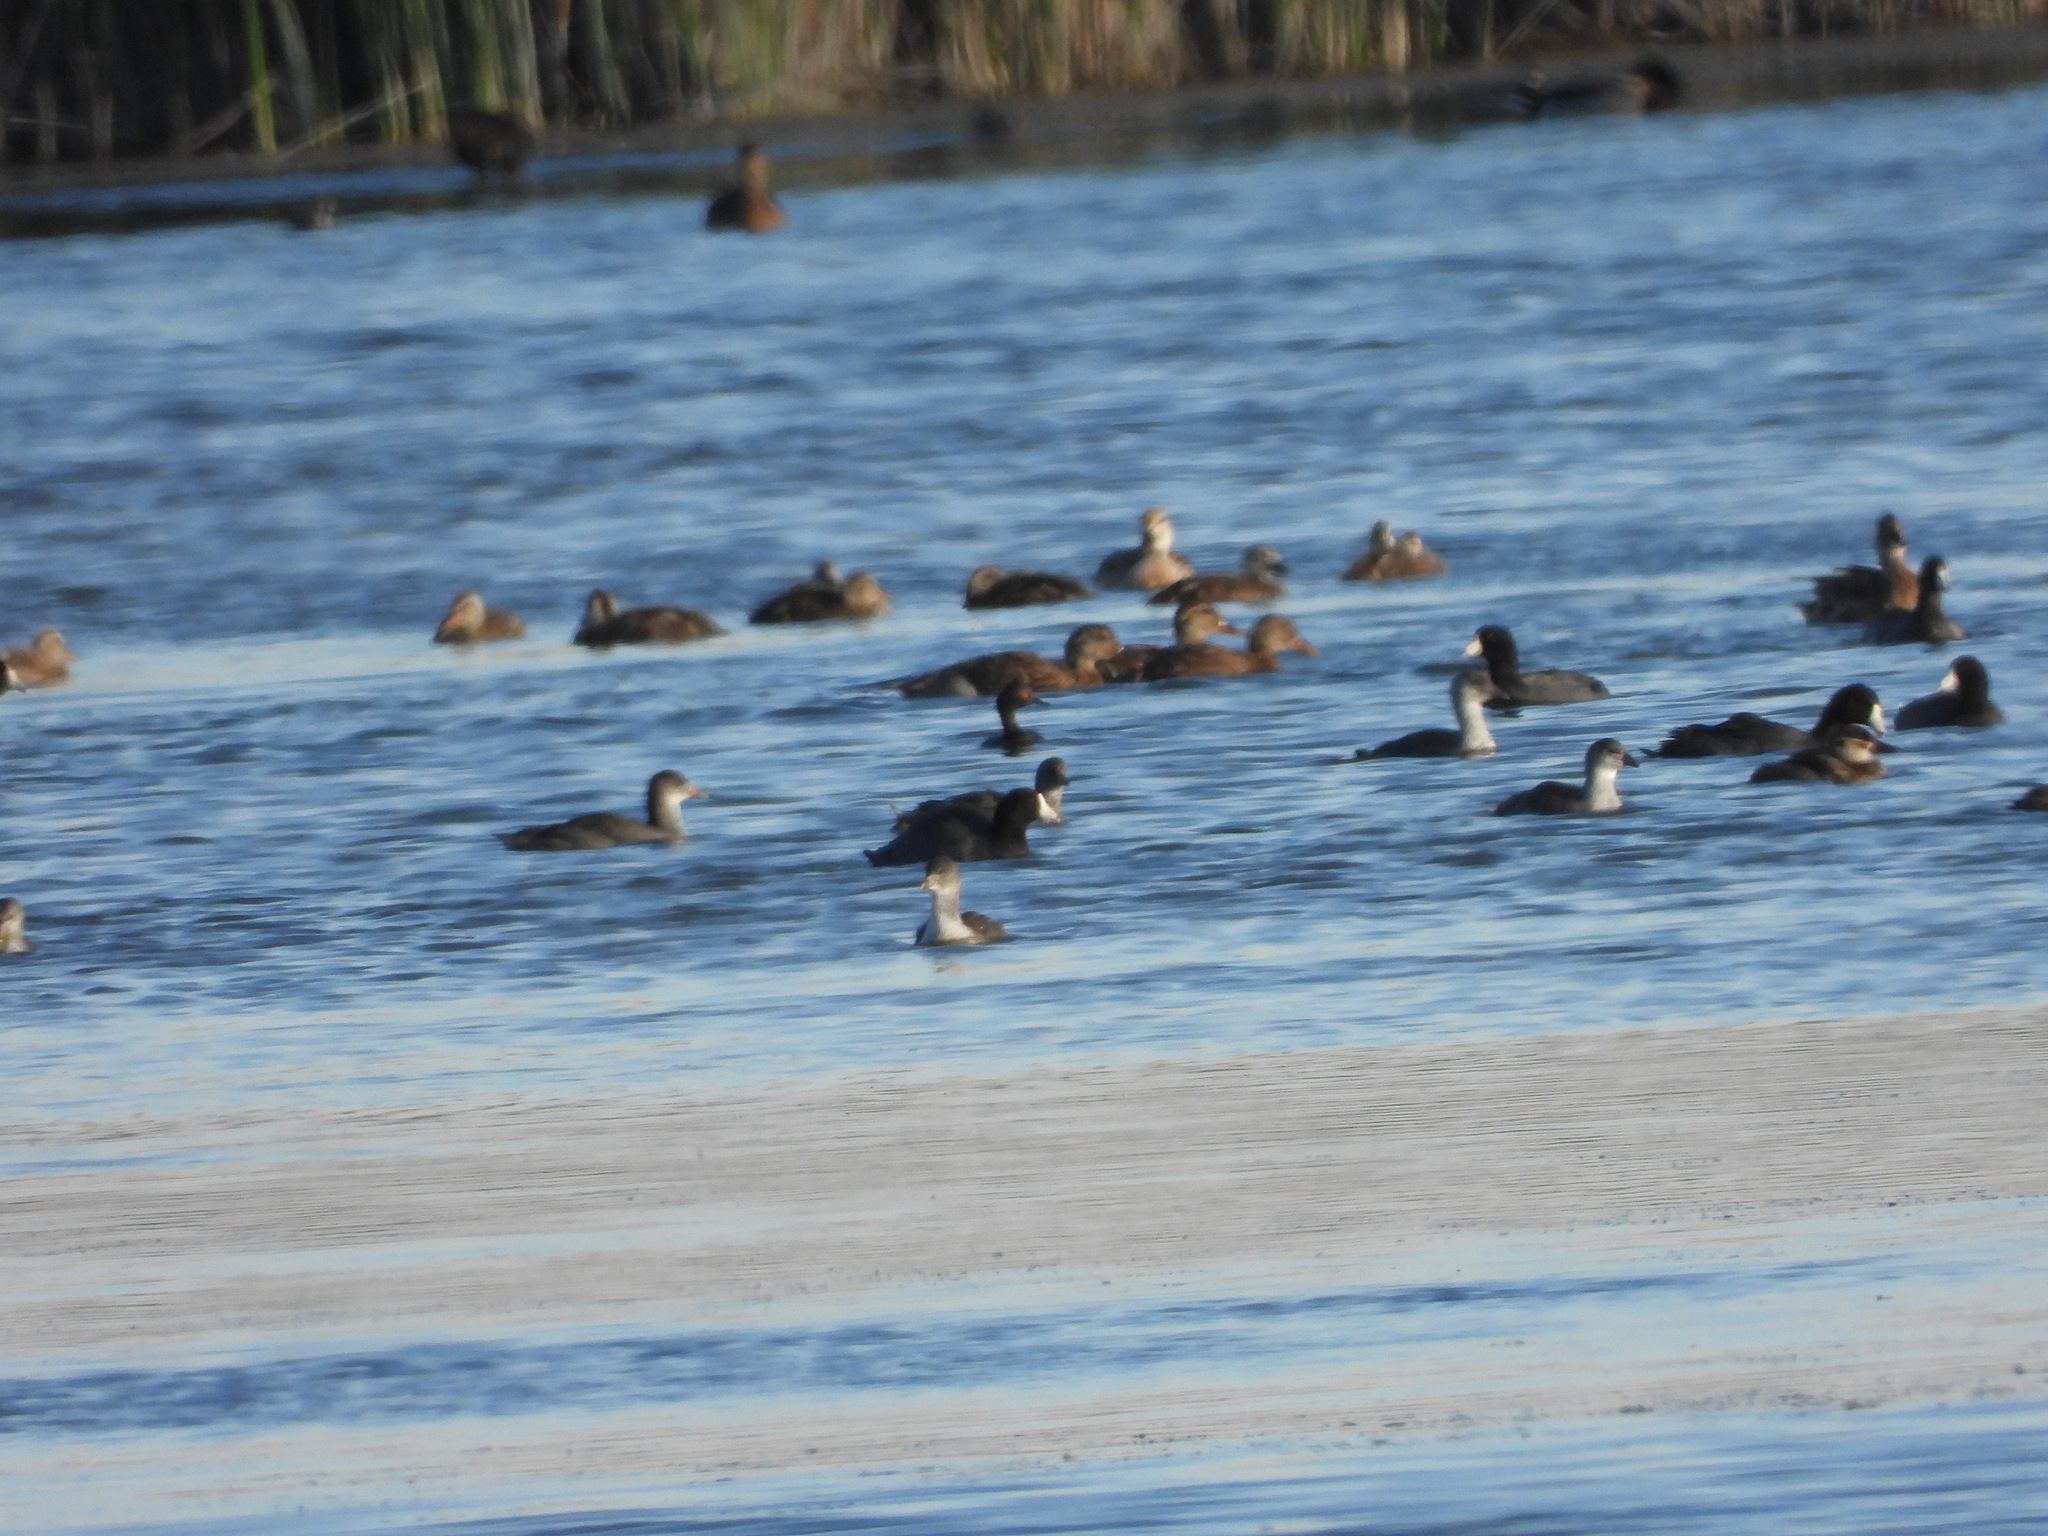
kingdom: Animalia
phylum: Chordata
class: Aves
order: Gruiformes
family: Rallidae
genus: Fulica
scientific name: Fulica americana
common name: American coot
